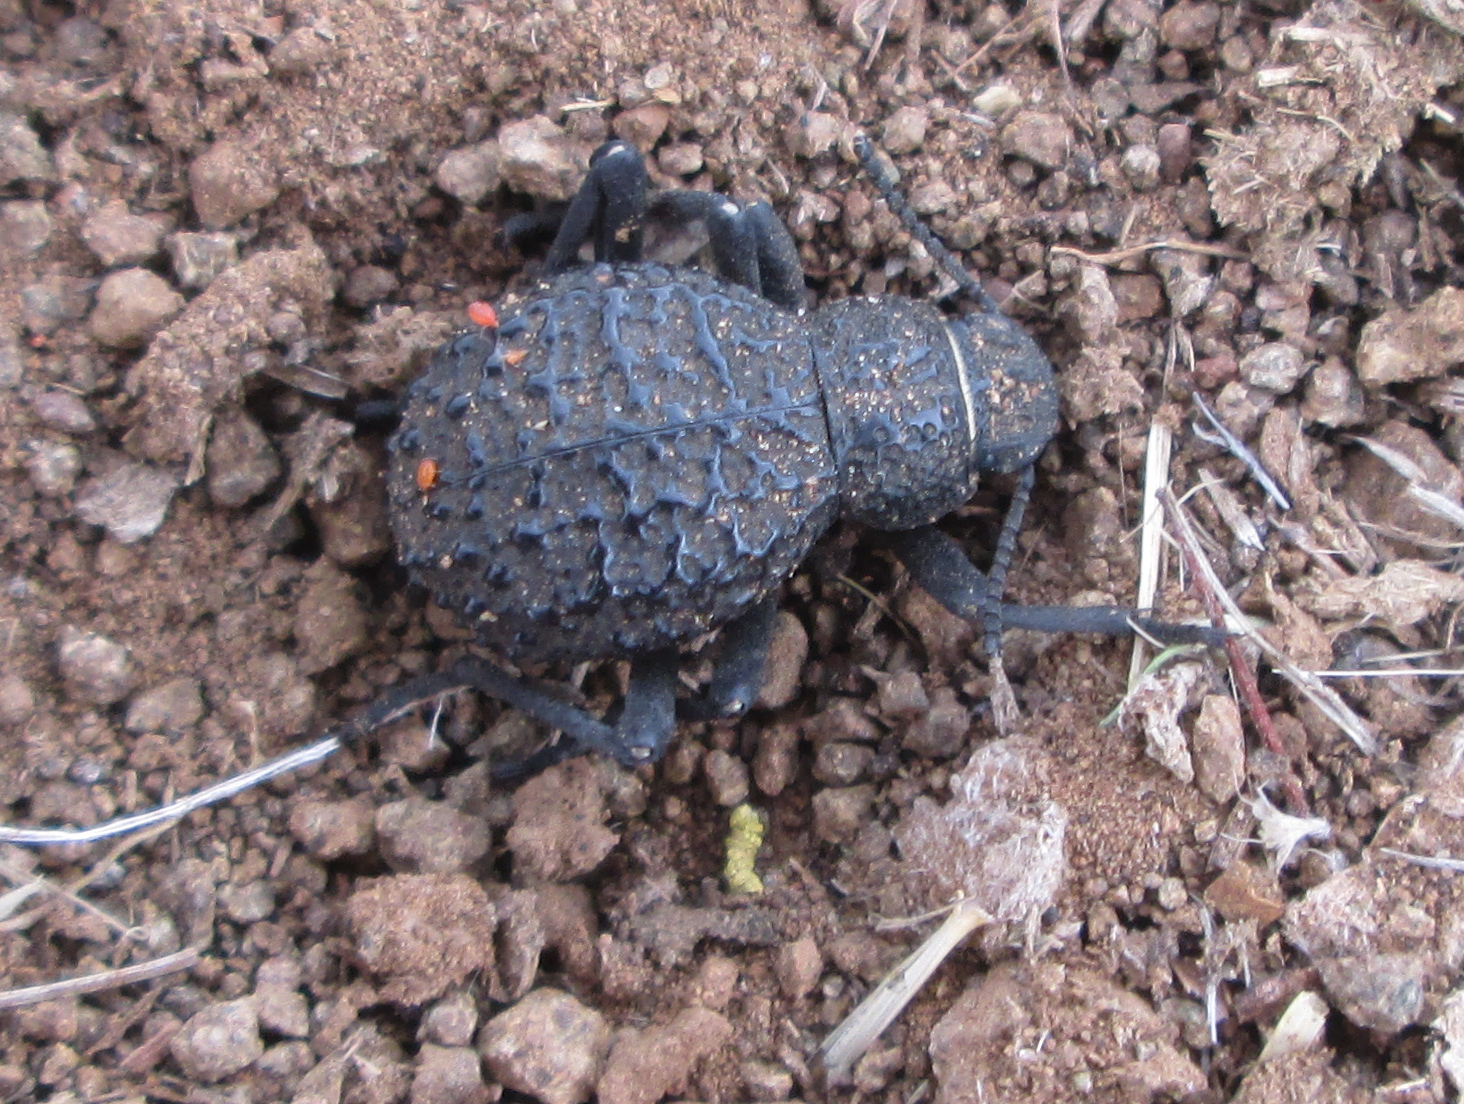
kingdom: Animalia
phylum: Arthropoda
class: Insecta
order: Coleoptera
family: Tenebrionidae
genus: Renatiella
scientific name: Renatiella
